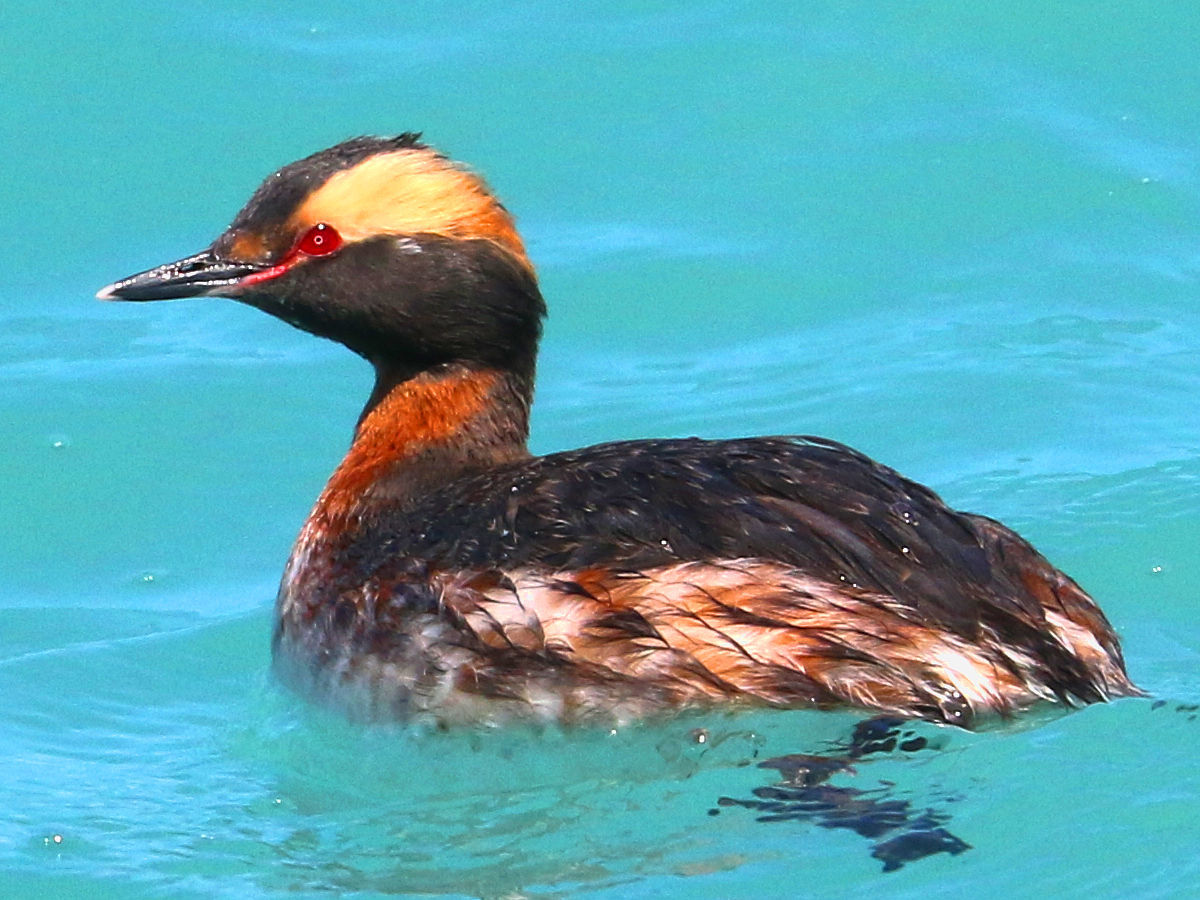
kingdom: Animalia
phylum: Chordata
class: Aves
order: Podicipediformes
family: Podicipedidae
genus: Podiceps
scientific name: Podiceps auritus
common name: Horned grebe
